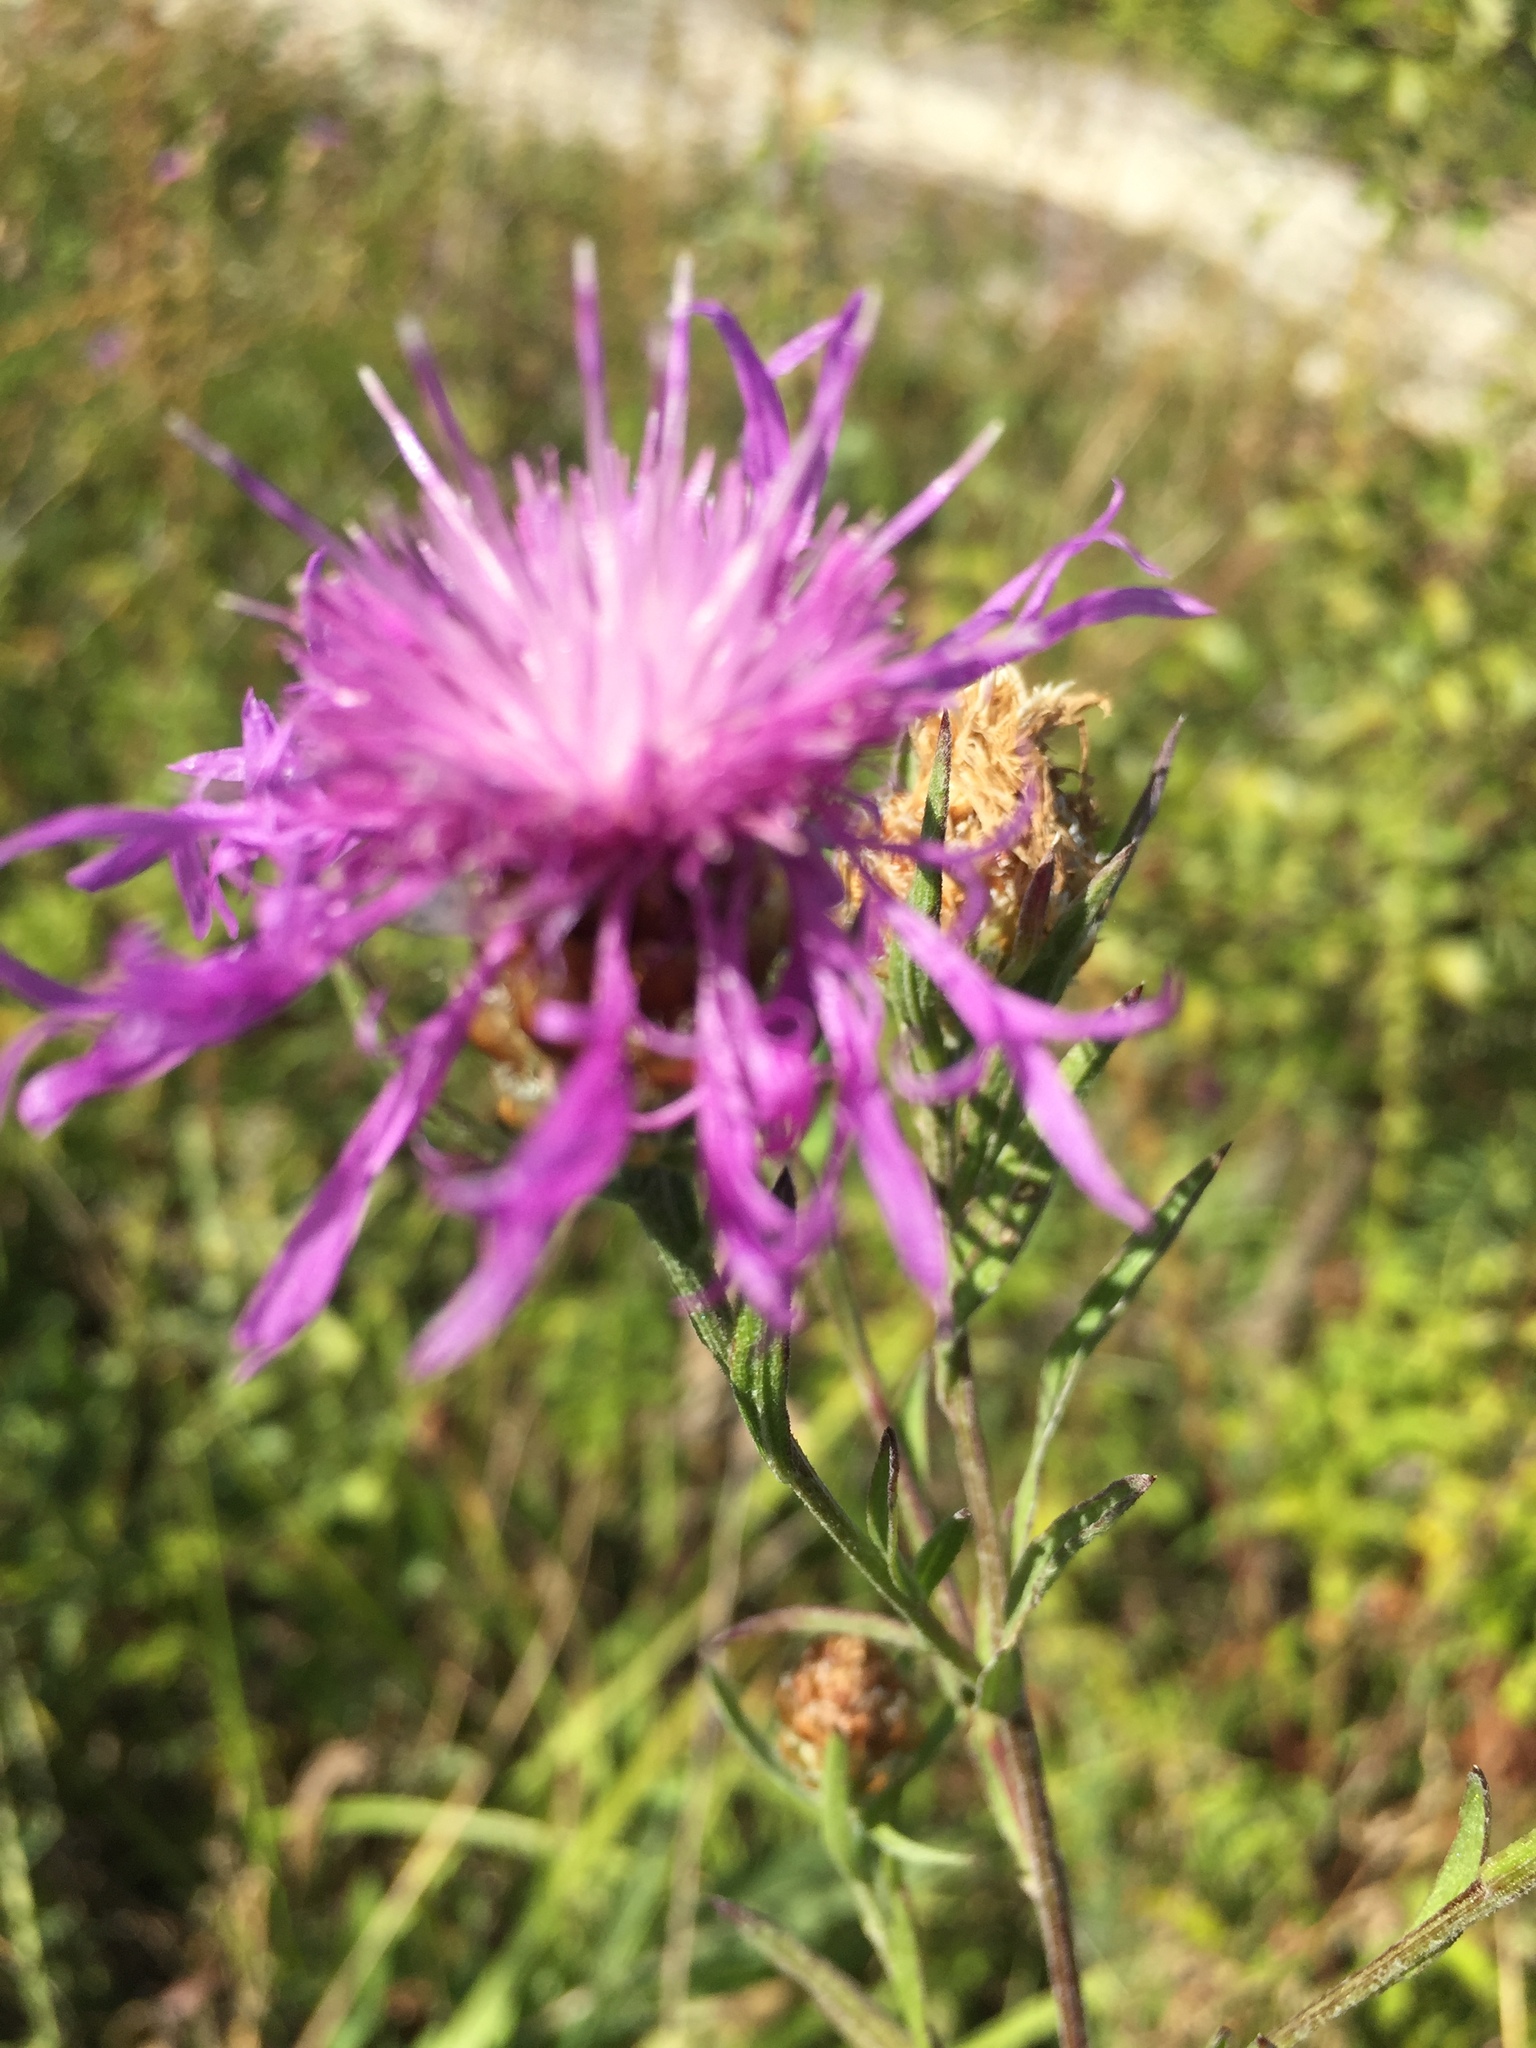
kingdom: Plantae
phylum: Tracheophyta
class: Magnoliopsida
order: Asterales
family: Asteraceae
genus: Centaurea
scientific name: Centaurea jacea
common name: Brown knapweed
